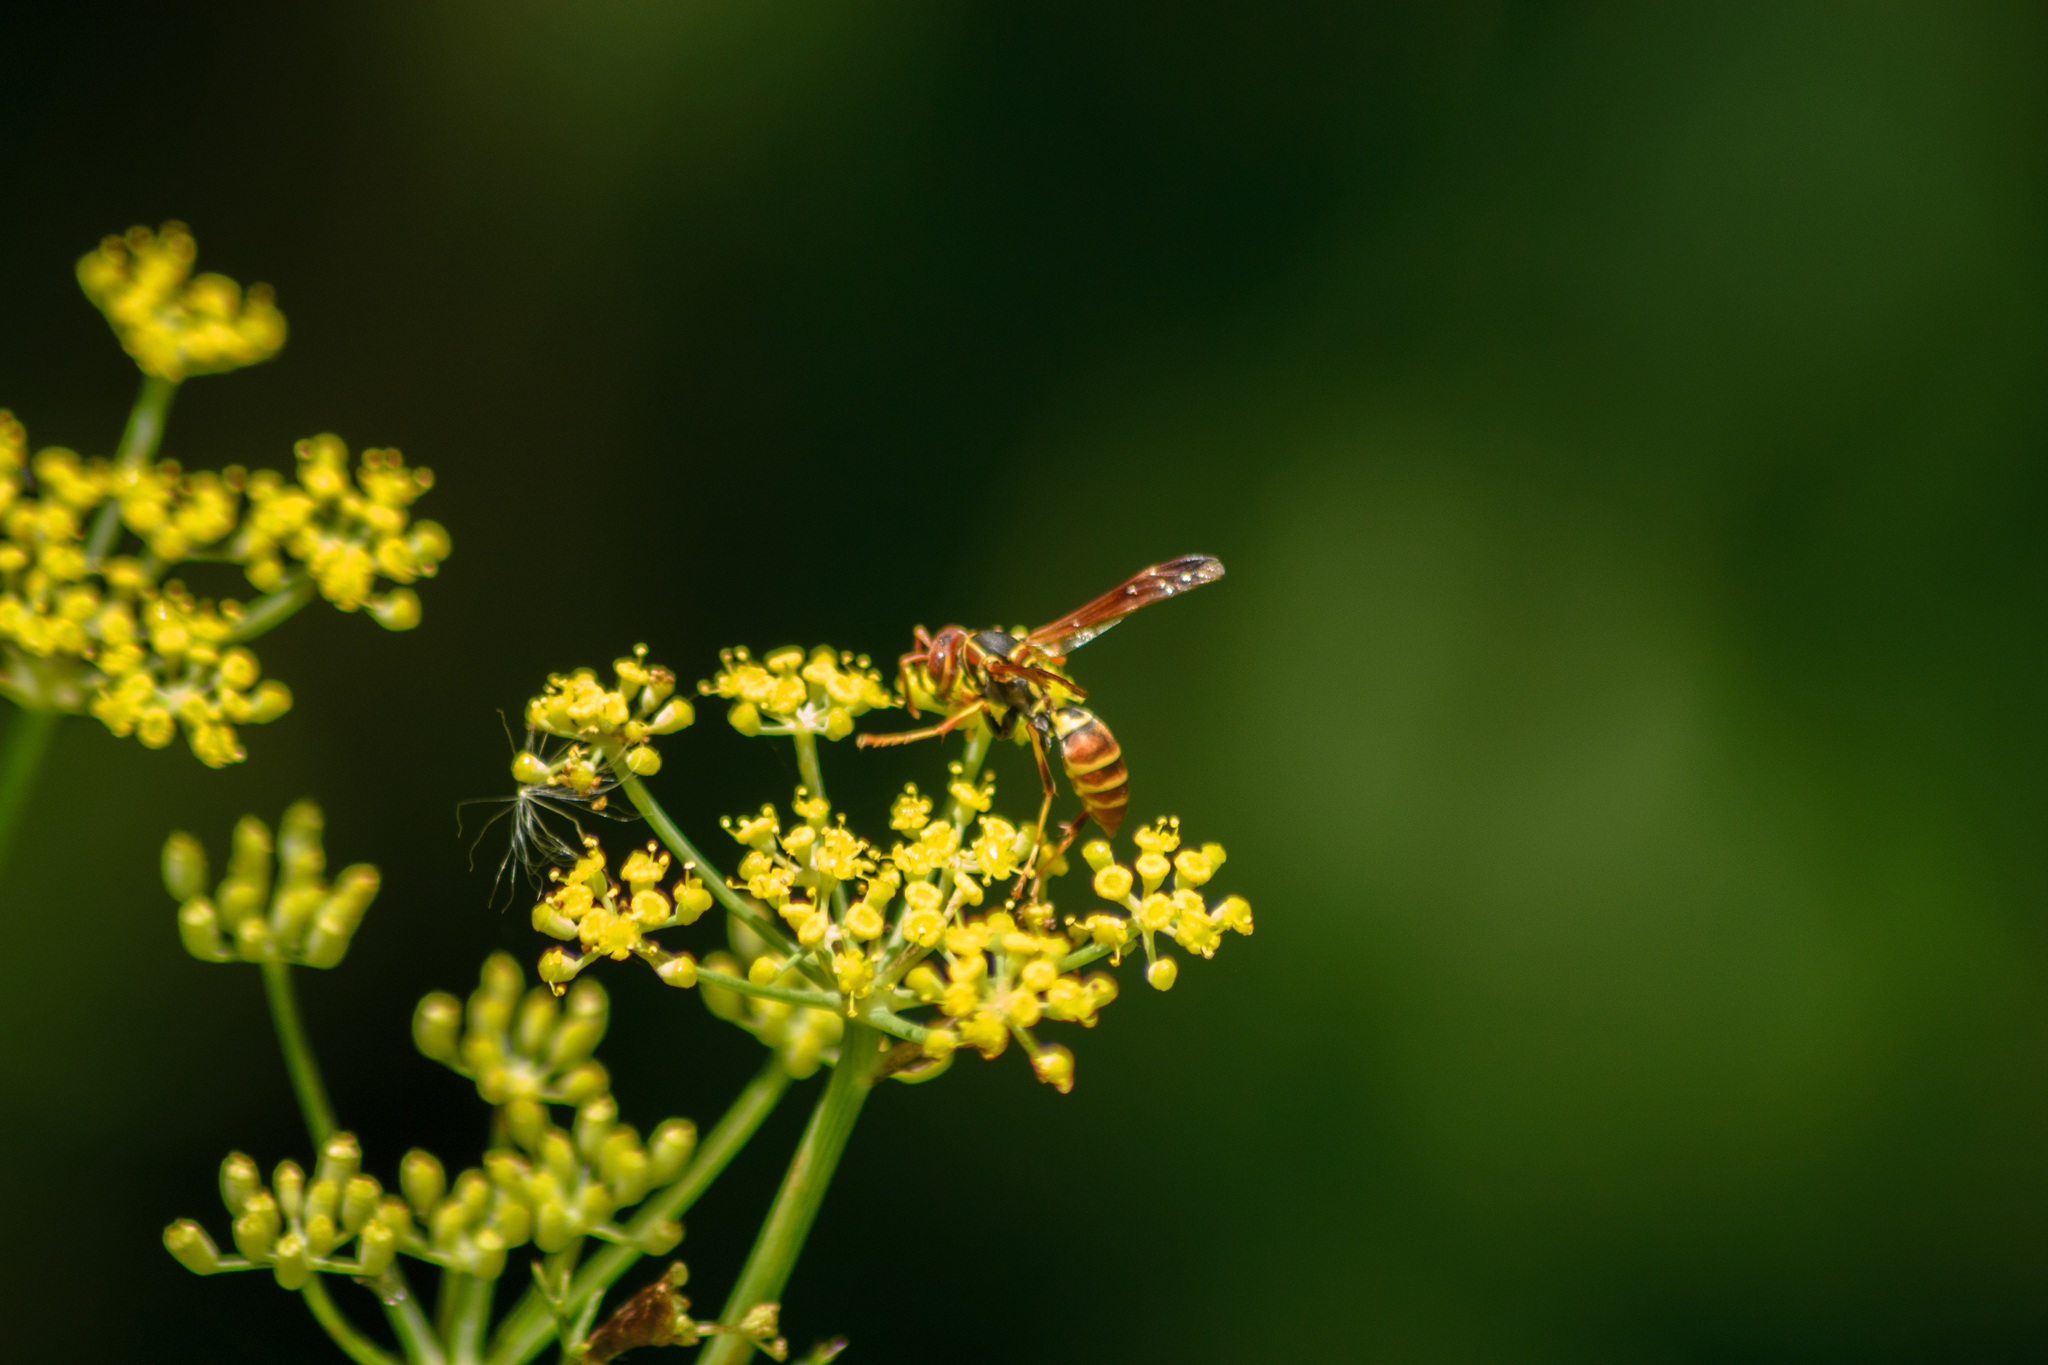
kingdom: Animalia
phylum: Arthropoda
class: Insecta
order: Hymenoptera
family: Eumenidae
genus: Polistes
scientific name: Polistes dorsalis
